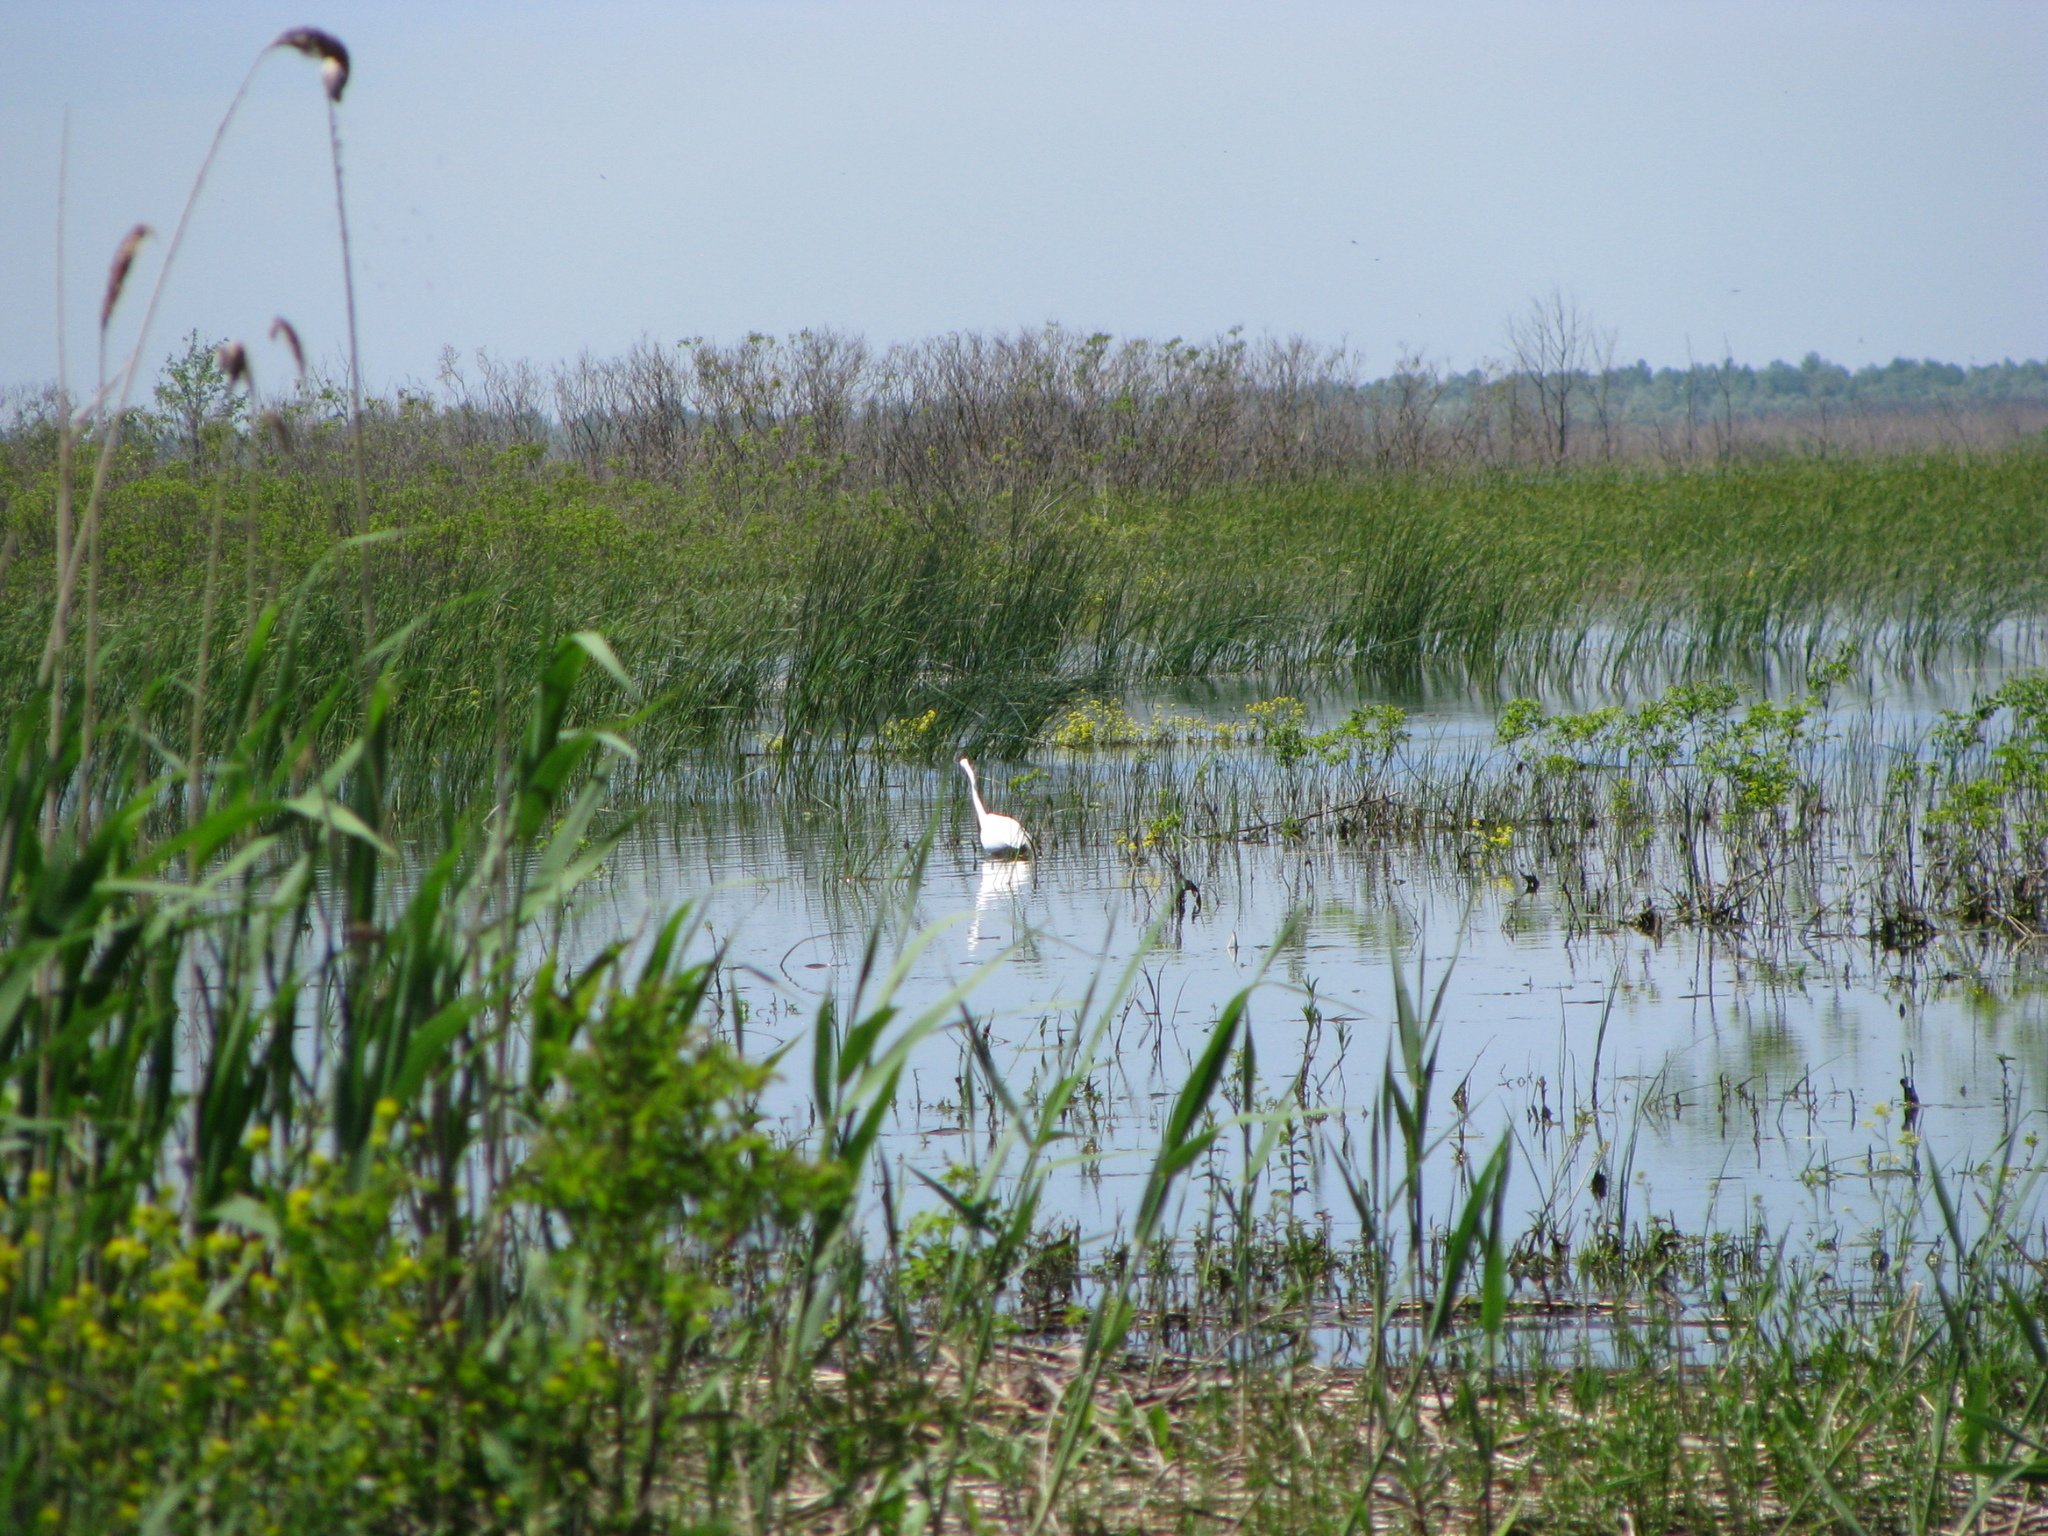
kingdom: Animalia
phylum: Chordata
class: Aves
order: Pelecaniformes
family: Ardeidae
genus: Ardea
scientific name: Ardea alba
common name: Great egret
